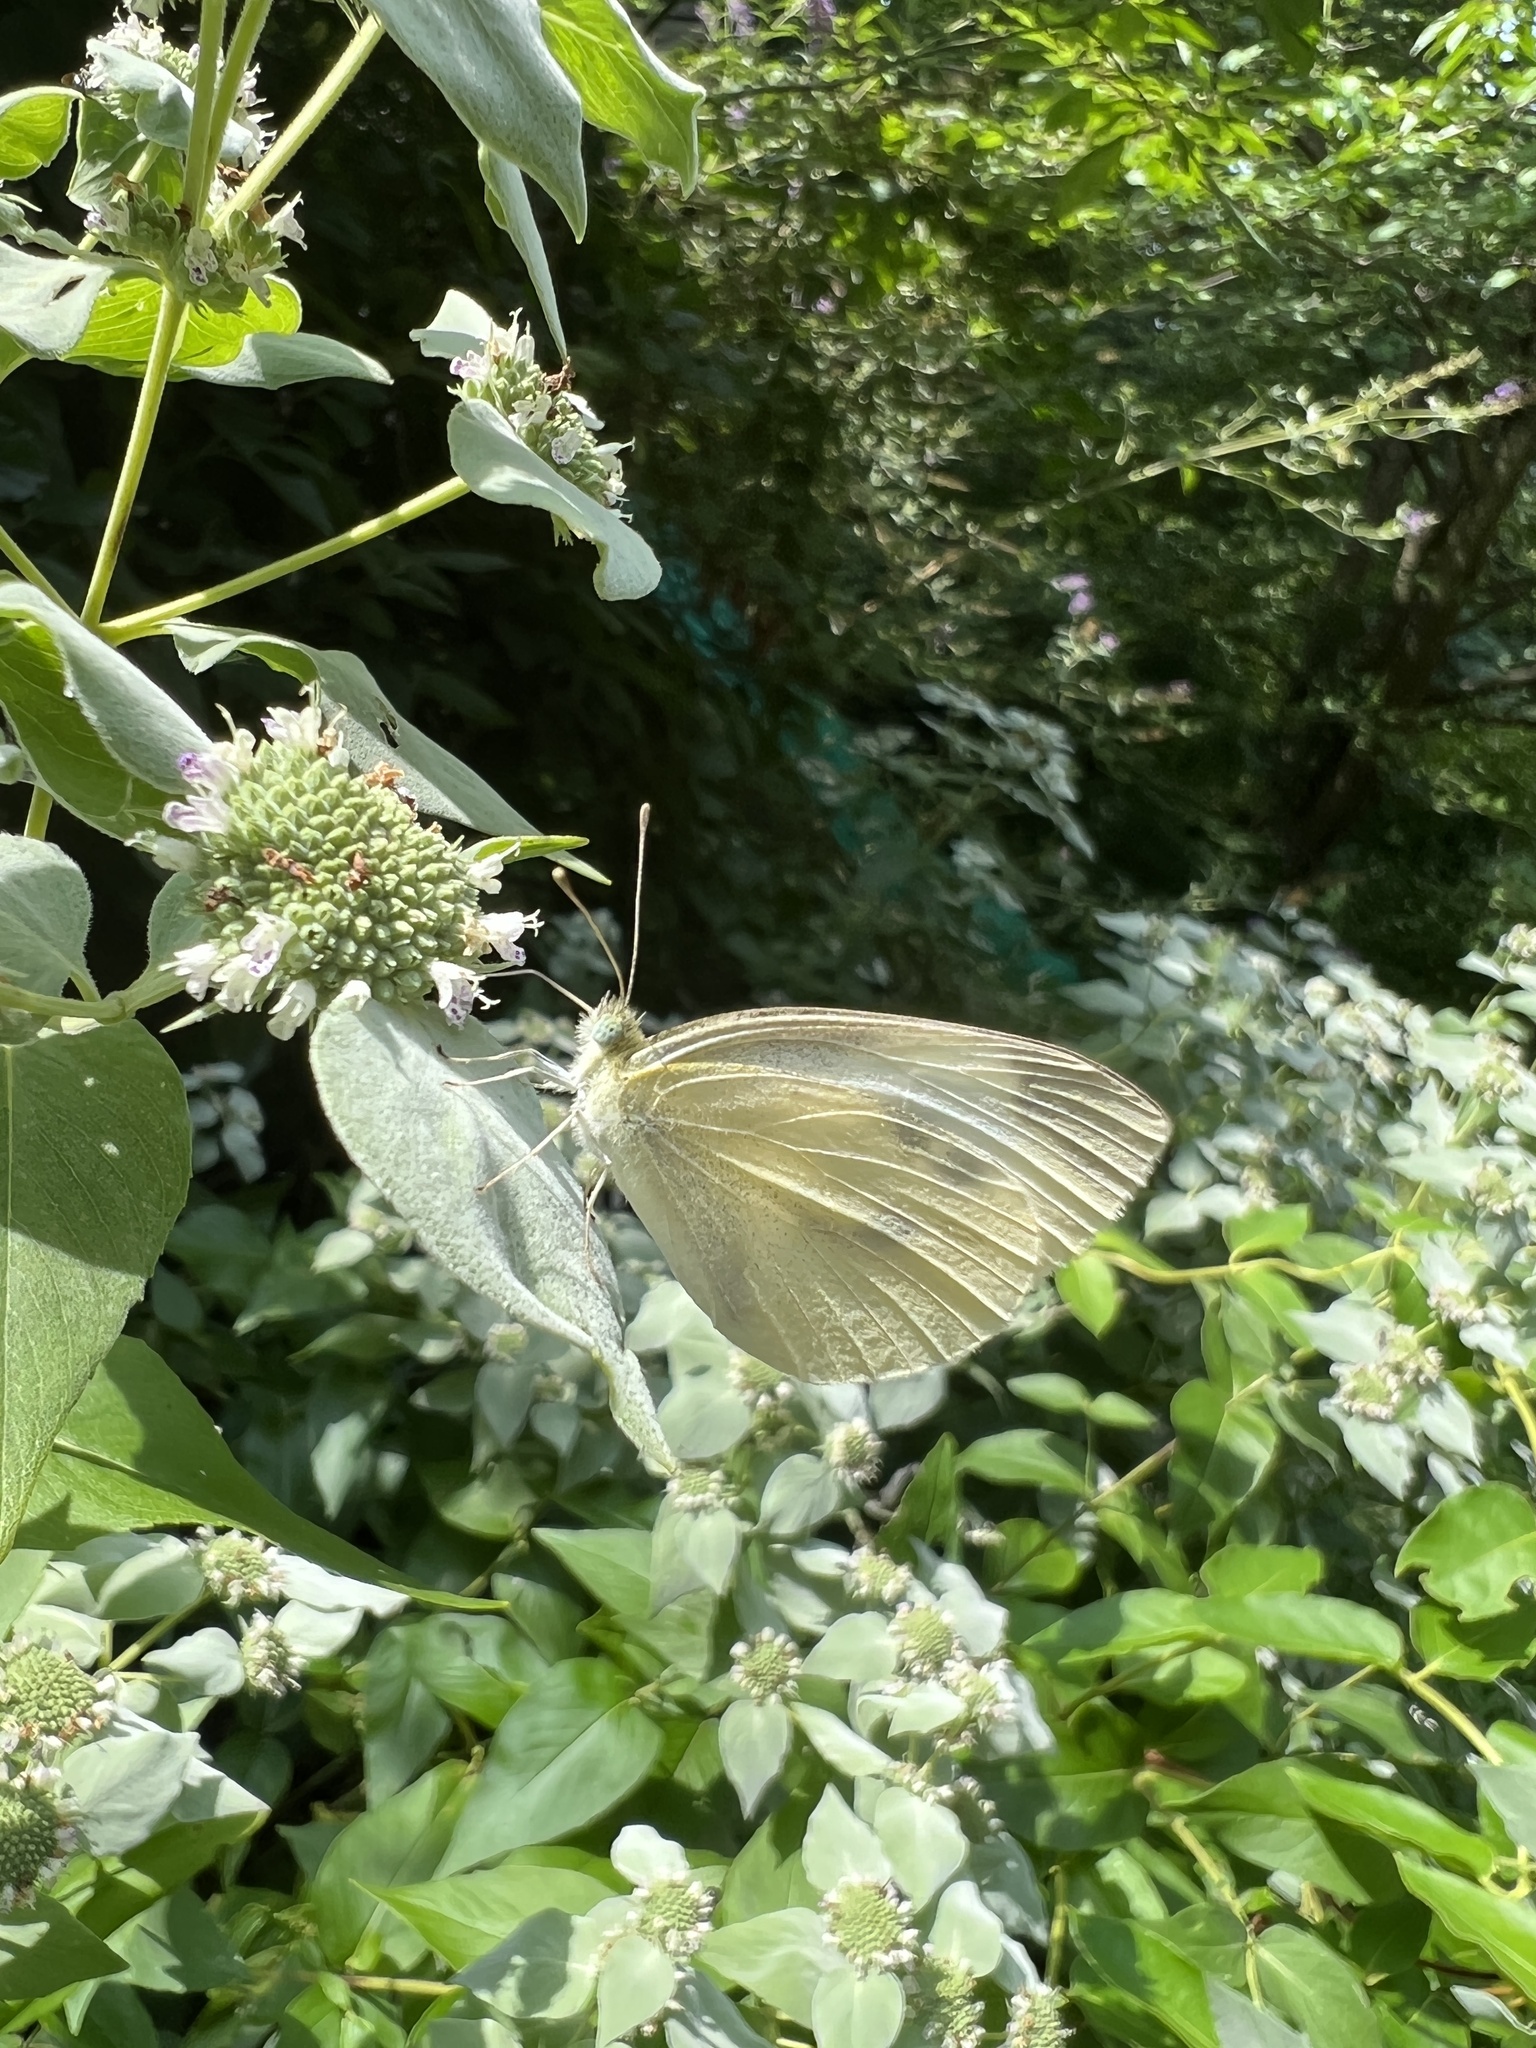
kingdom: Animalia
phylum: Arthropoda
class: Insecta
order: Lepidoptera
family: Pieridae
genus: Pieris
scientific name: Pieris rapae
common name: Small white
